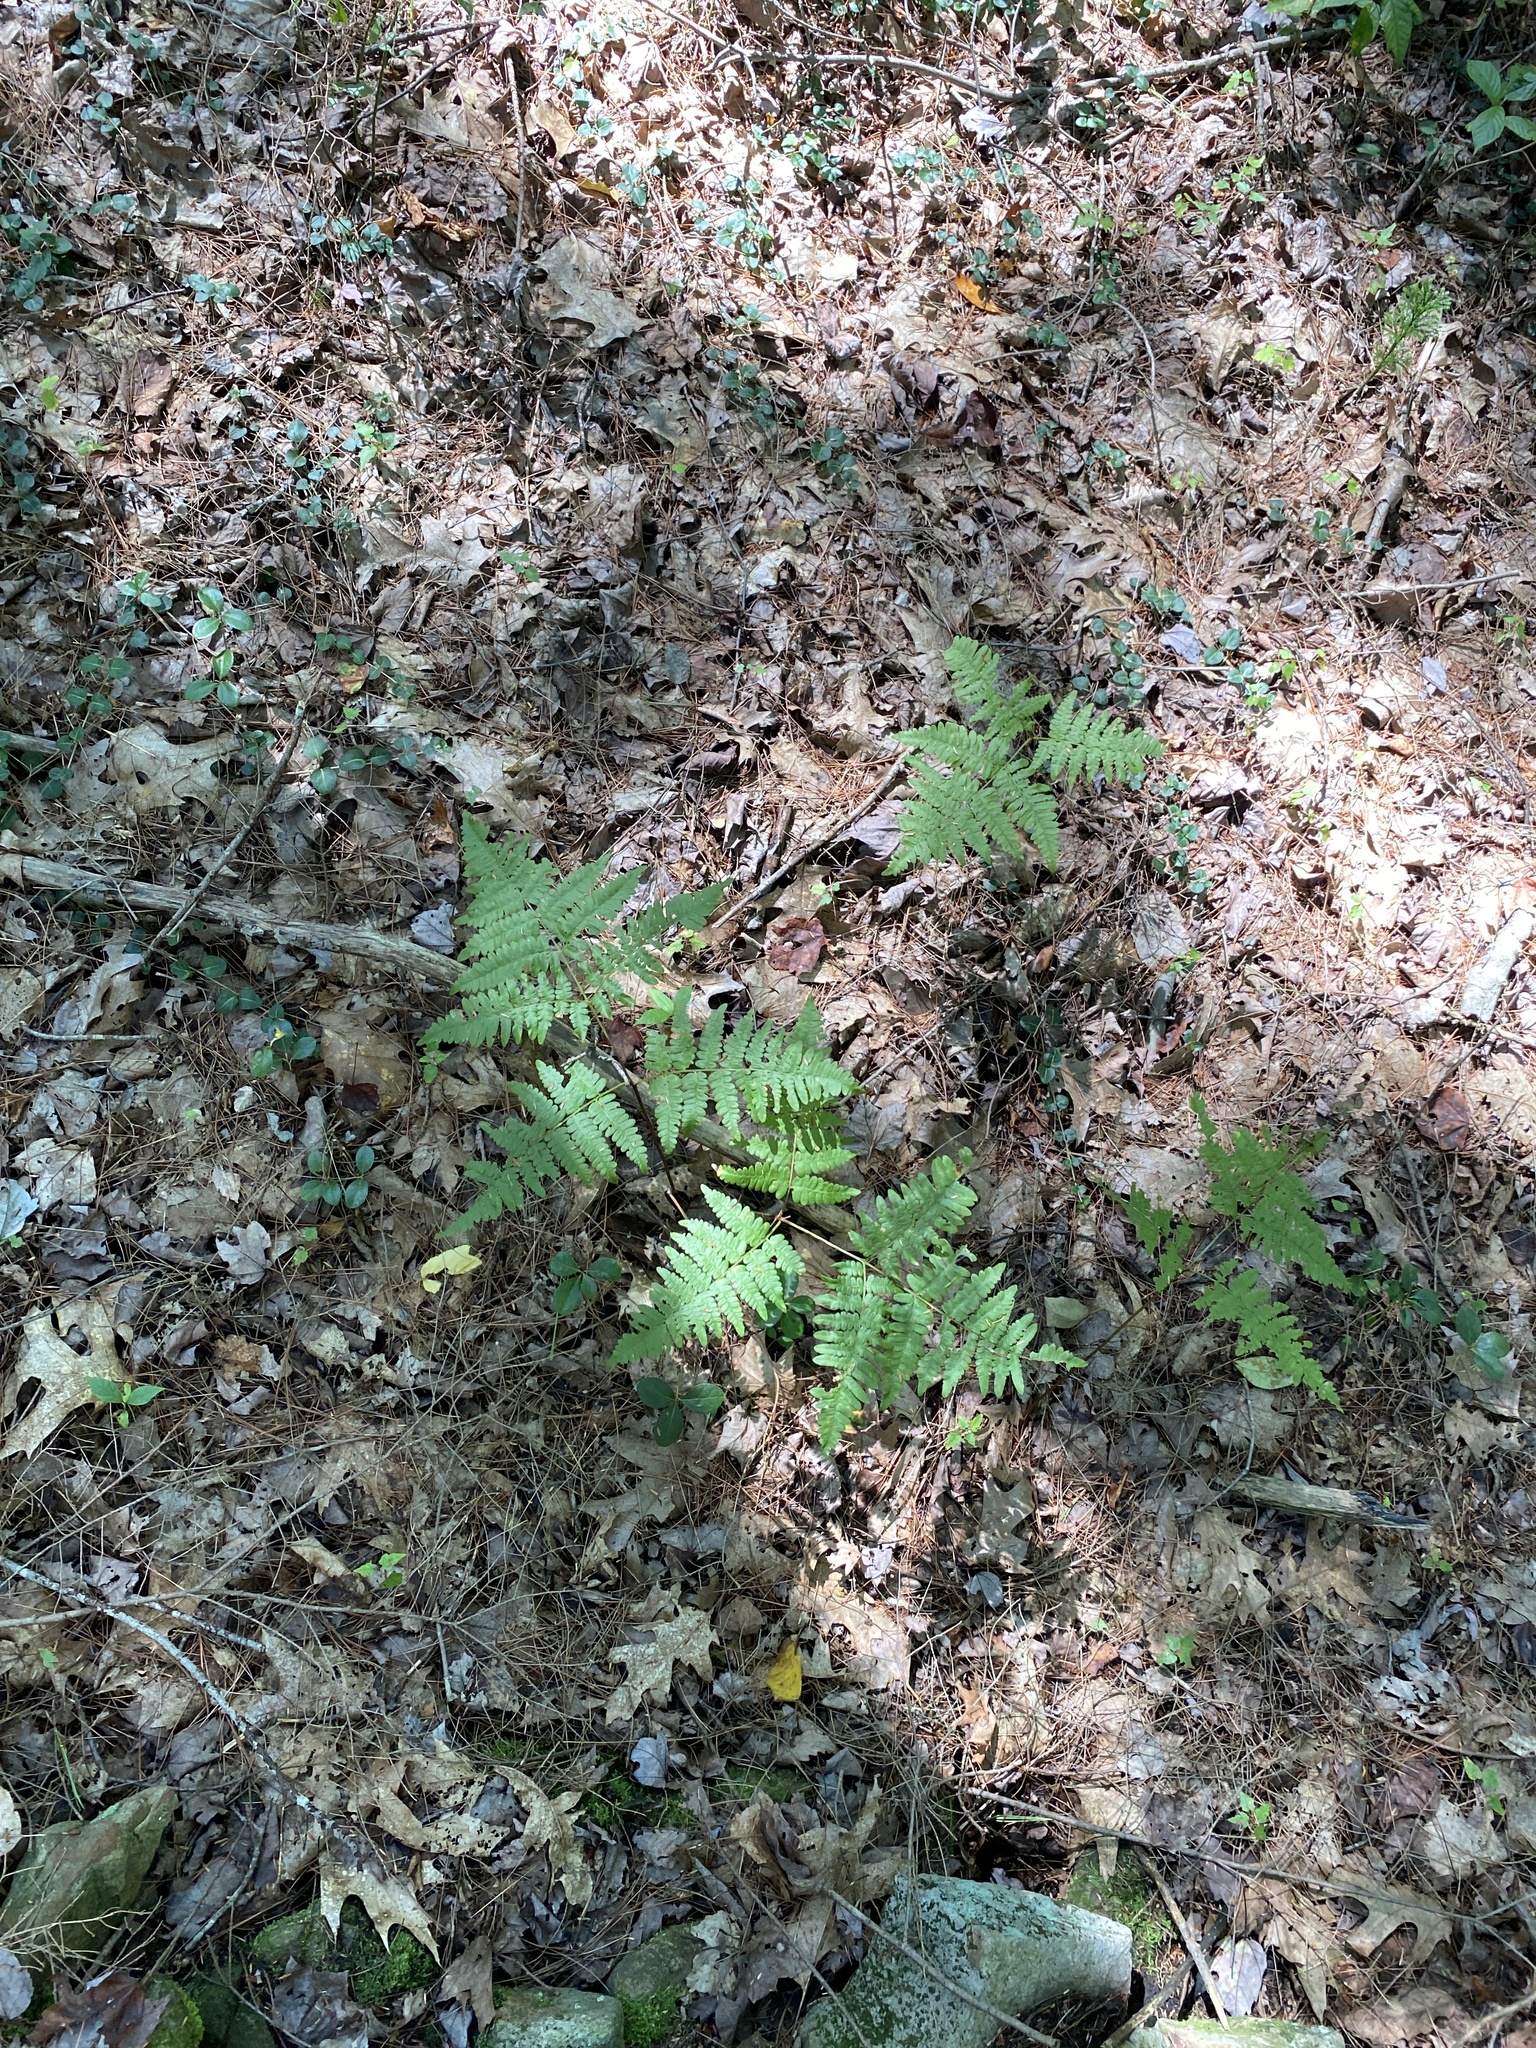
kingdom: Plantae
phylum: Tracheophyta
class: Polypodiopsida
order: Polypodiales
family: Dennstaedtiaceae
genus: Pteridium
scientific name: Pteridium aquilinum
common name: Bracken
